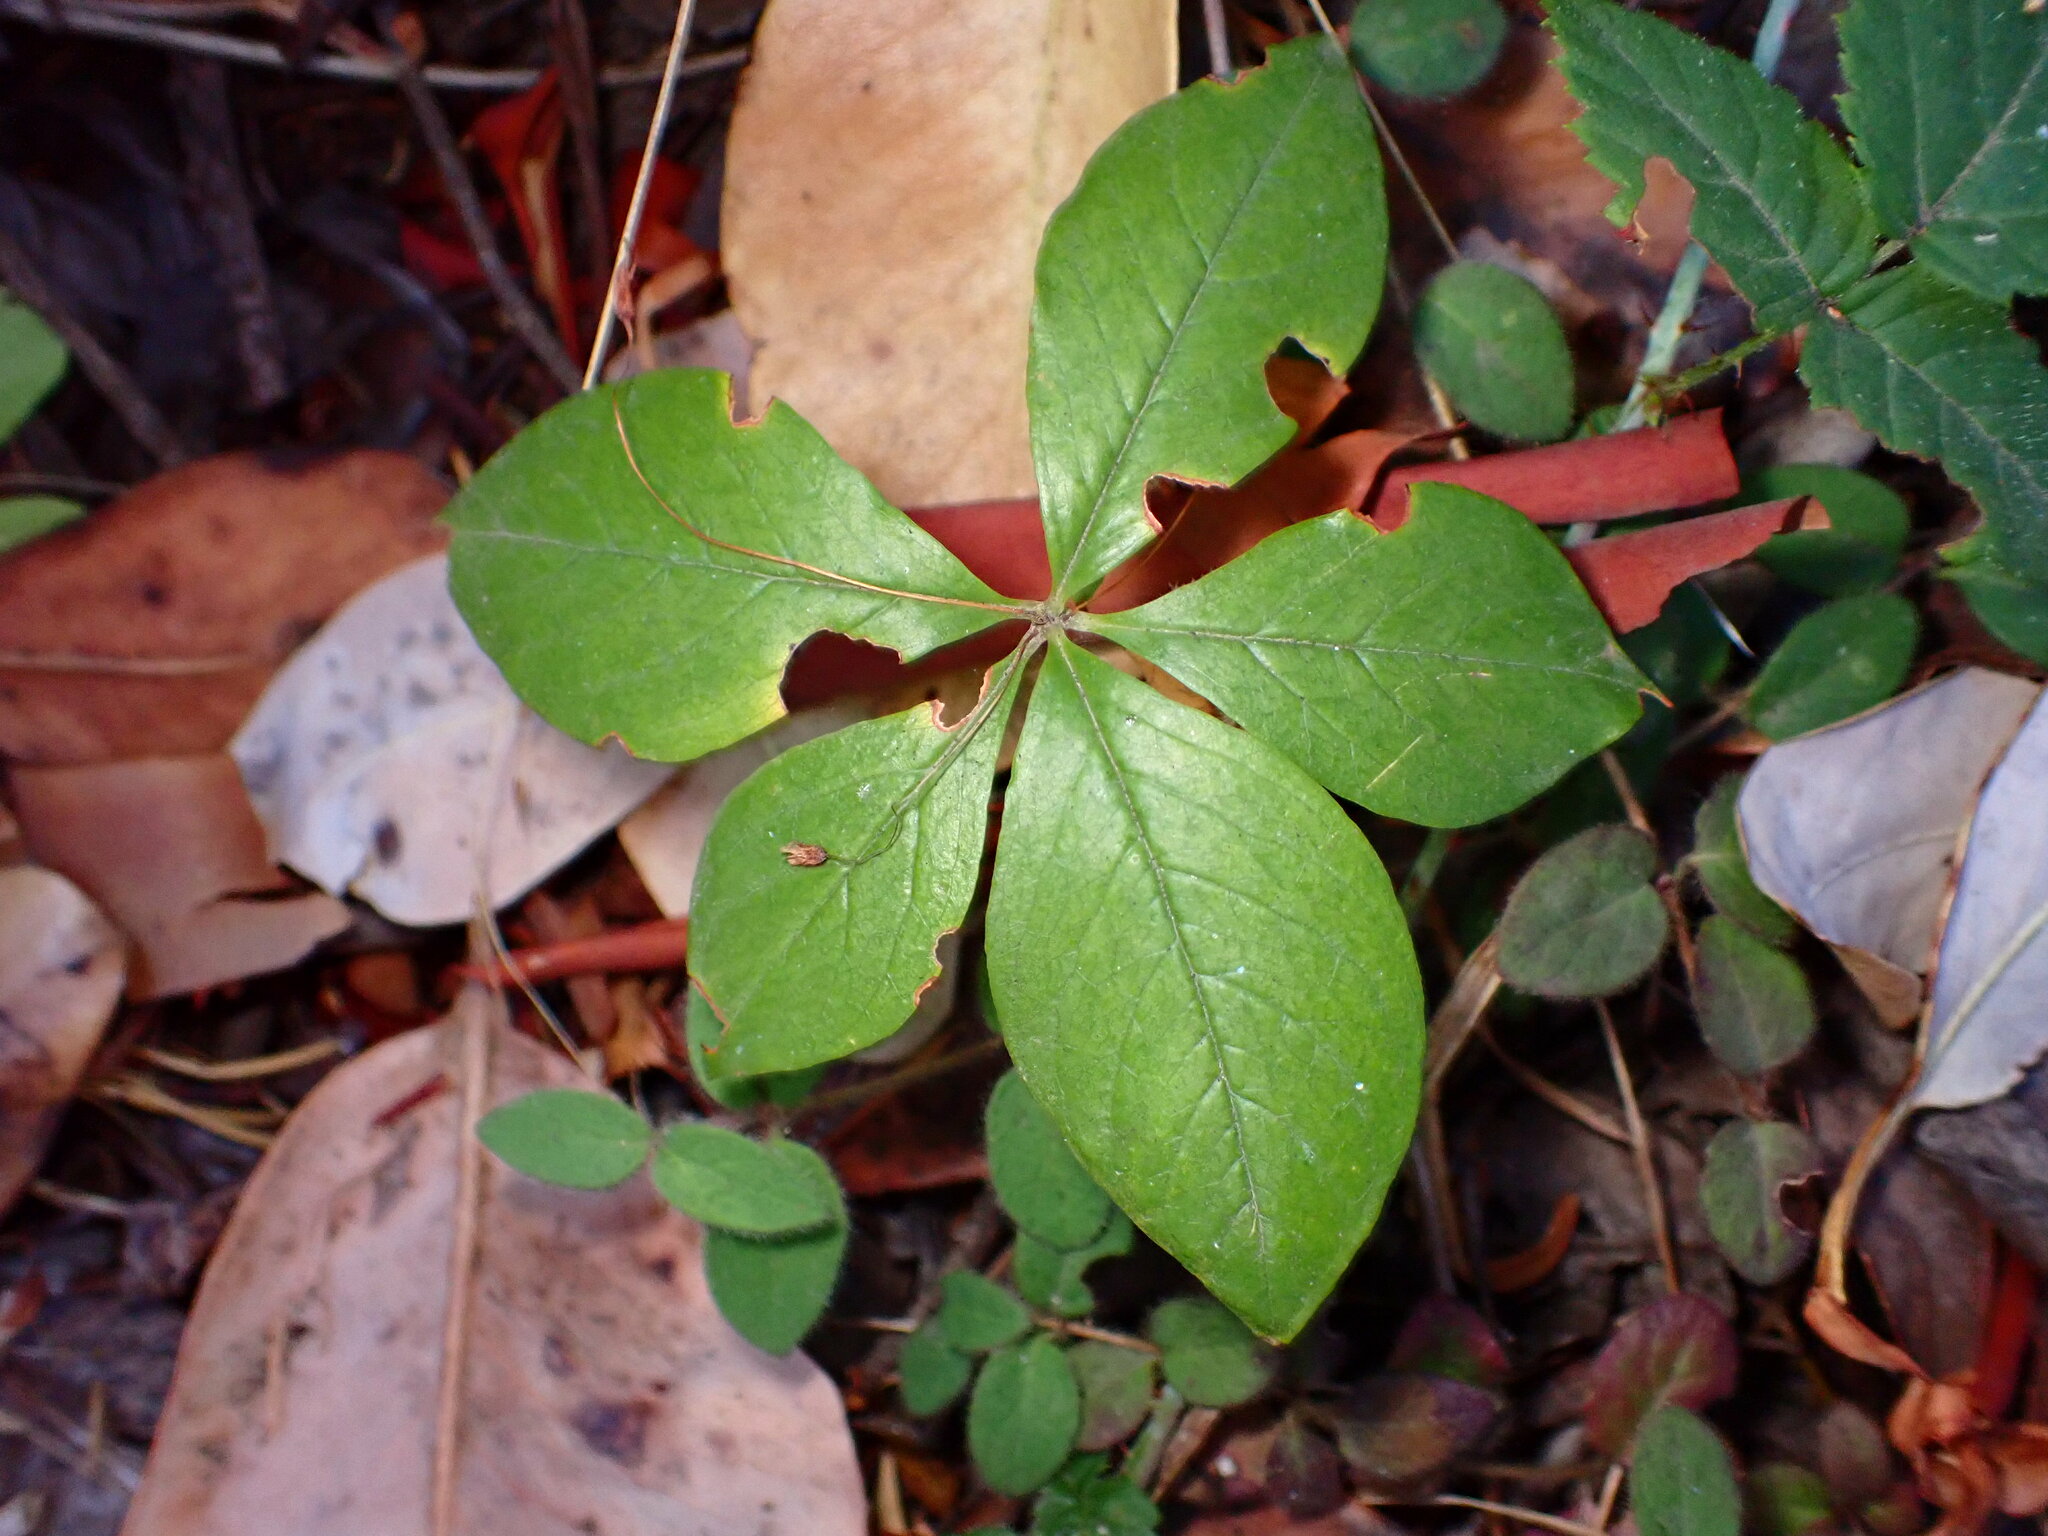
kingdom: Plantae
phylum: Tracheophyta
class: Magnoliopsida
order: Ericales
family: Primulaceae
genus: Lysimachia
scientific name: Lysimachia latifolia
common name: Pacific starflower
